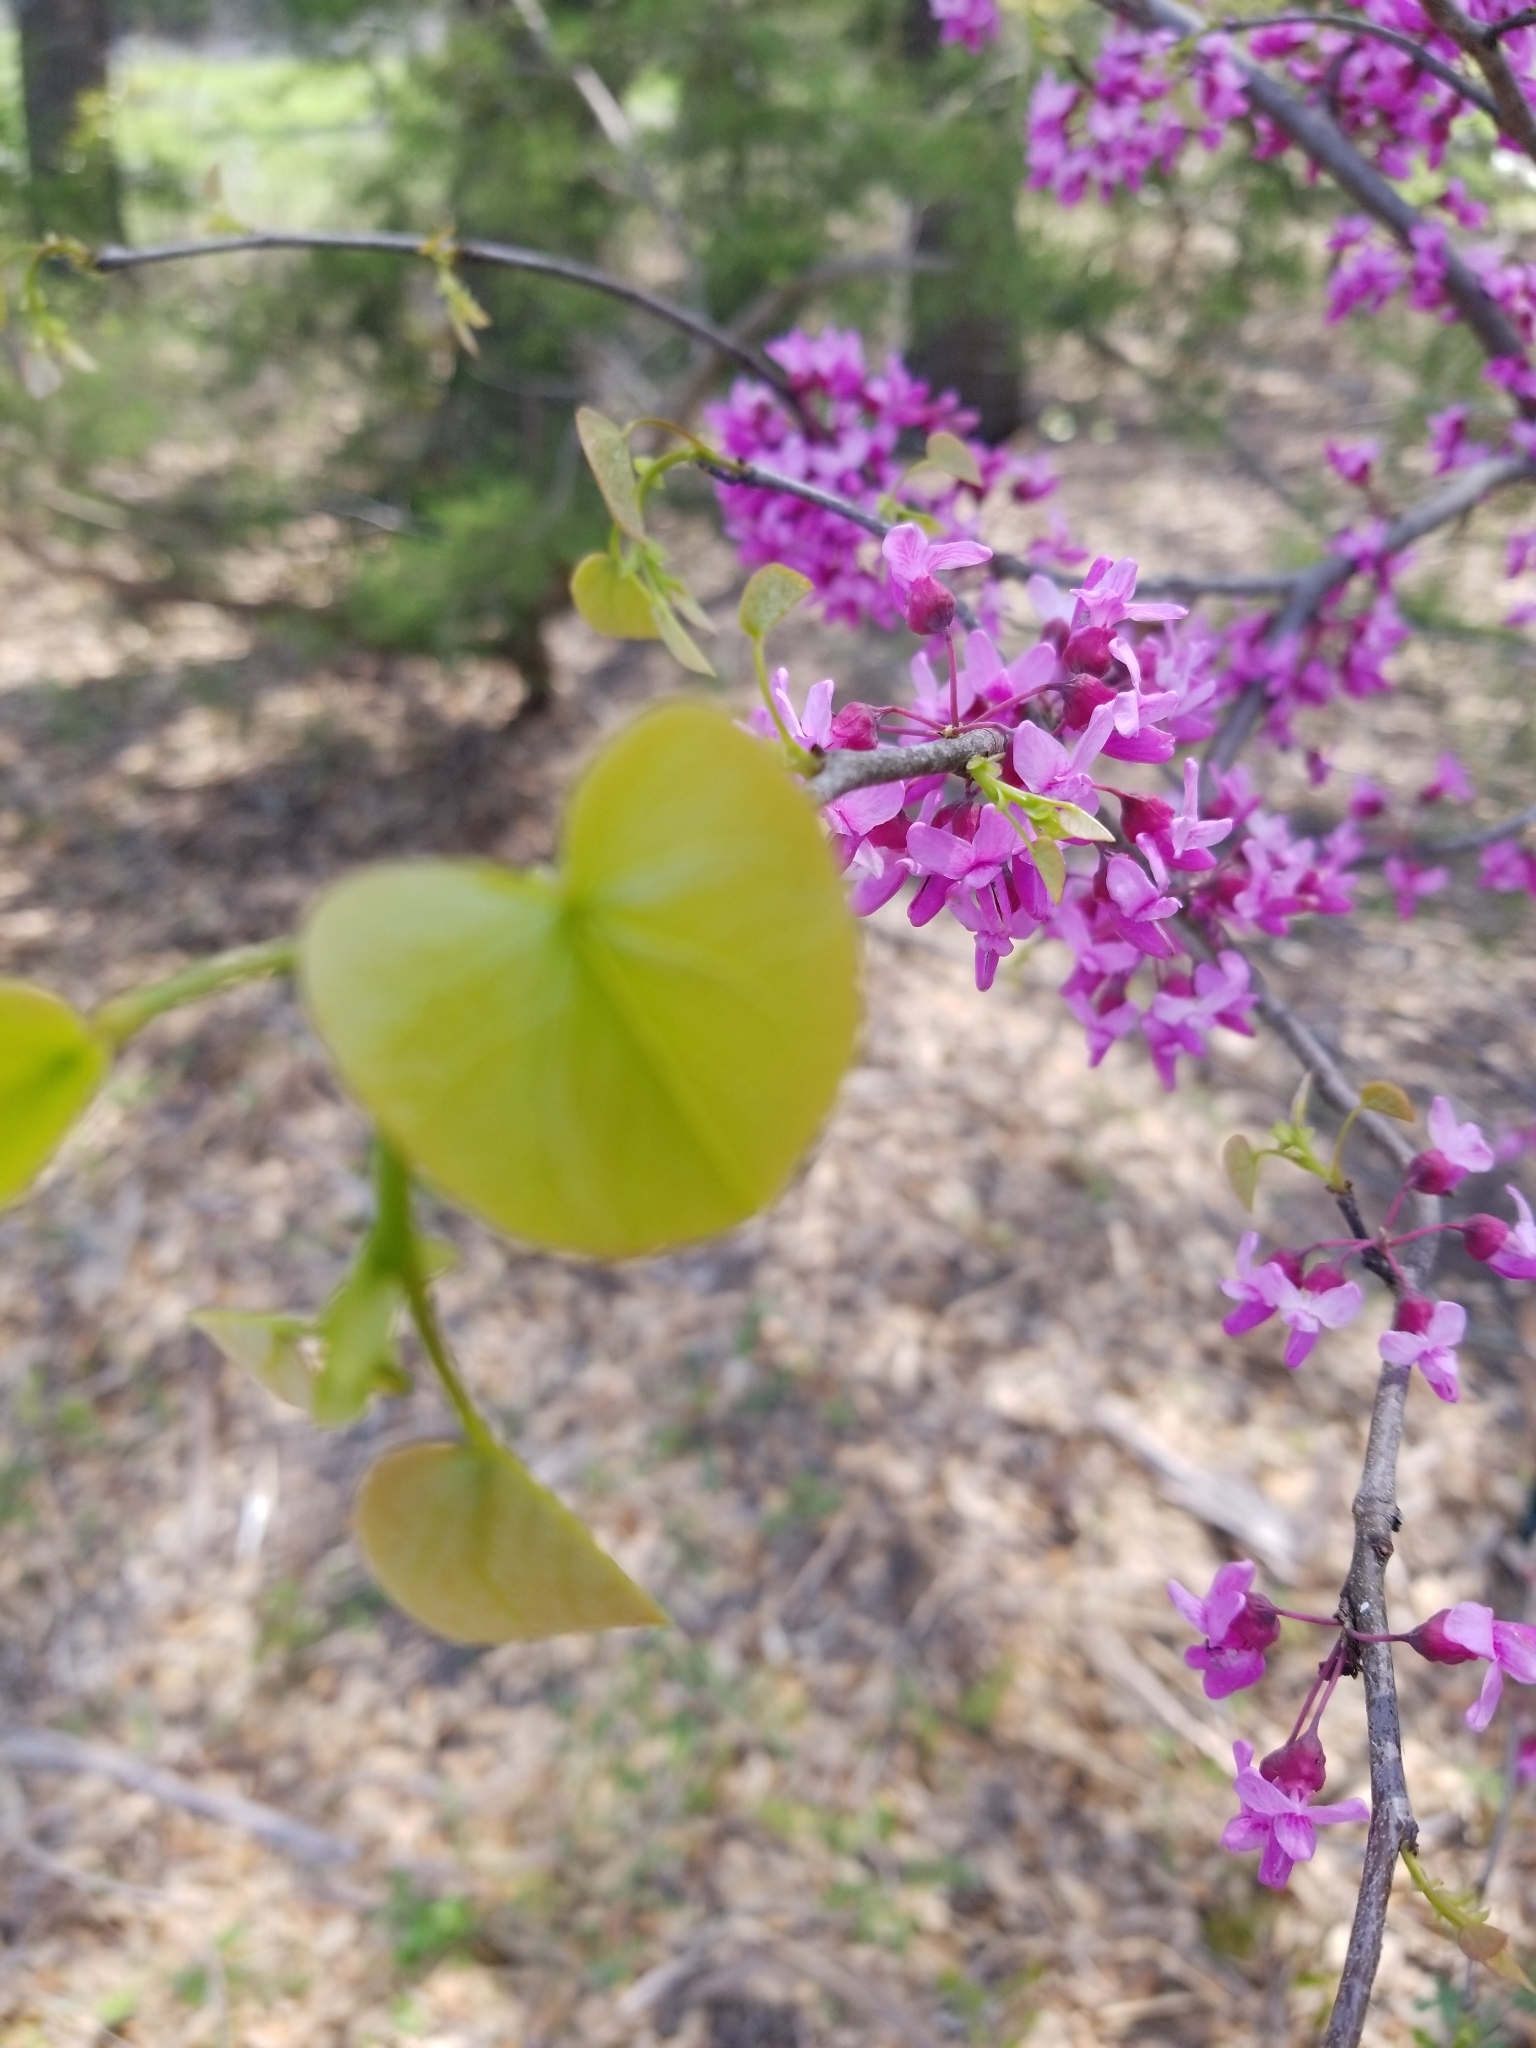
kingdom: Plantae
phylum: Tracheophyta
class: Magnoliopsida
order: Fabales
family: Fabaceae
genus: Cercis
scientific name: Cercis canadensis
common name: Eastern redbud
